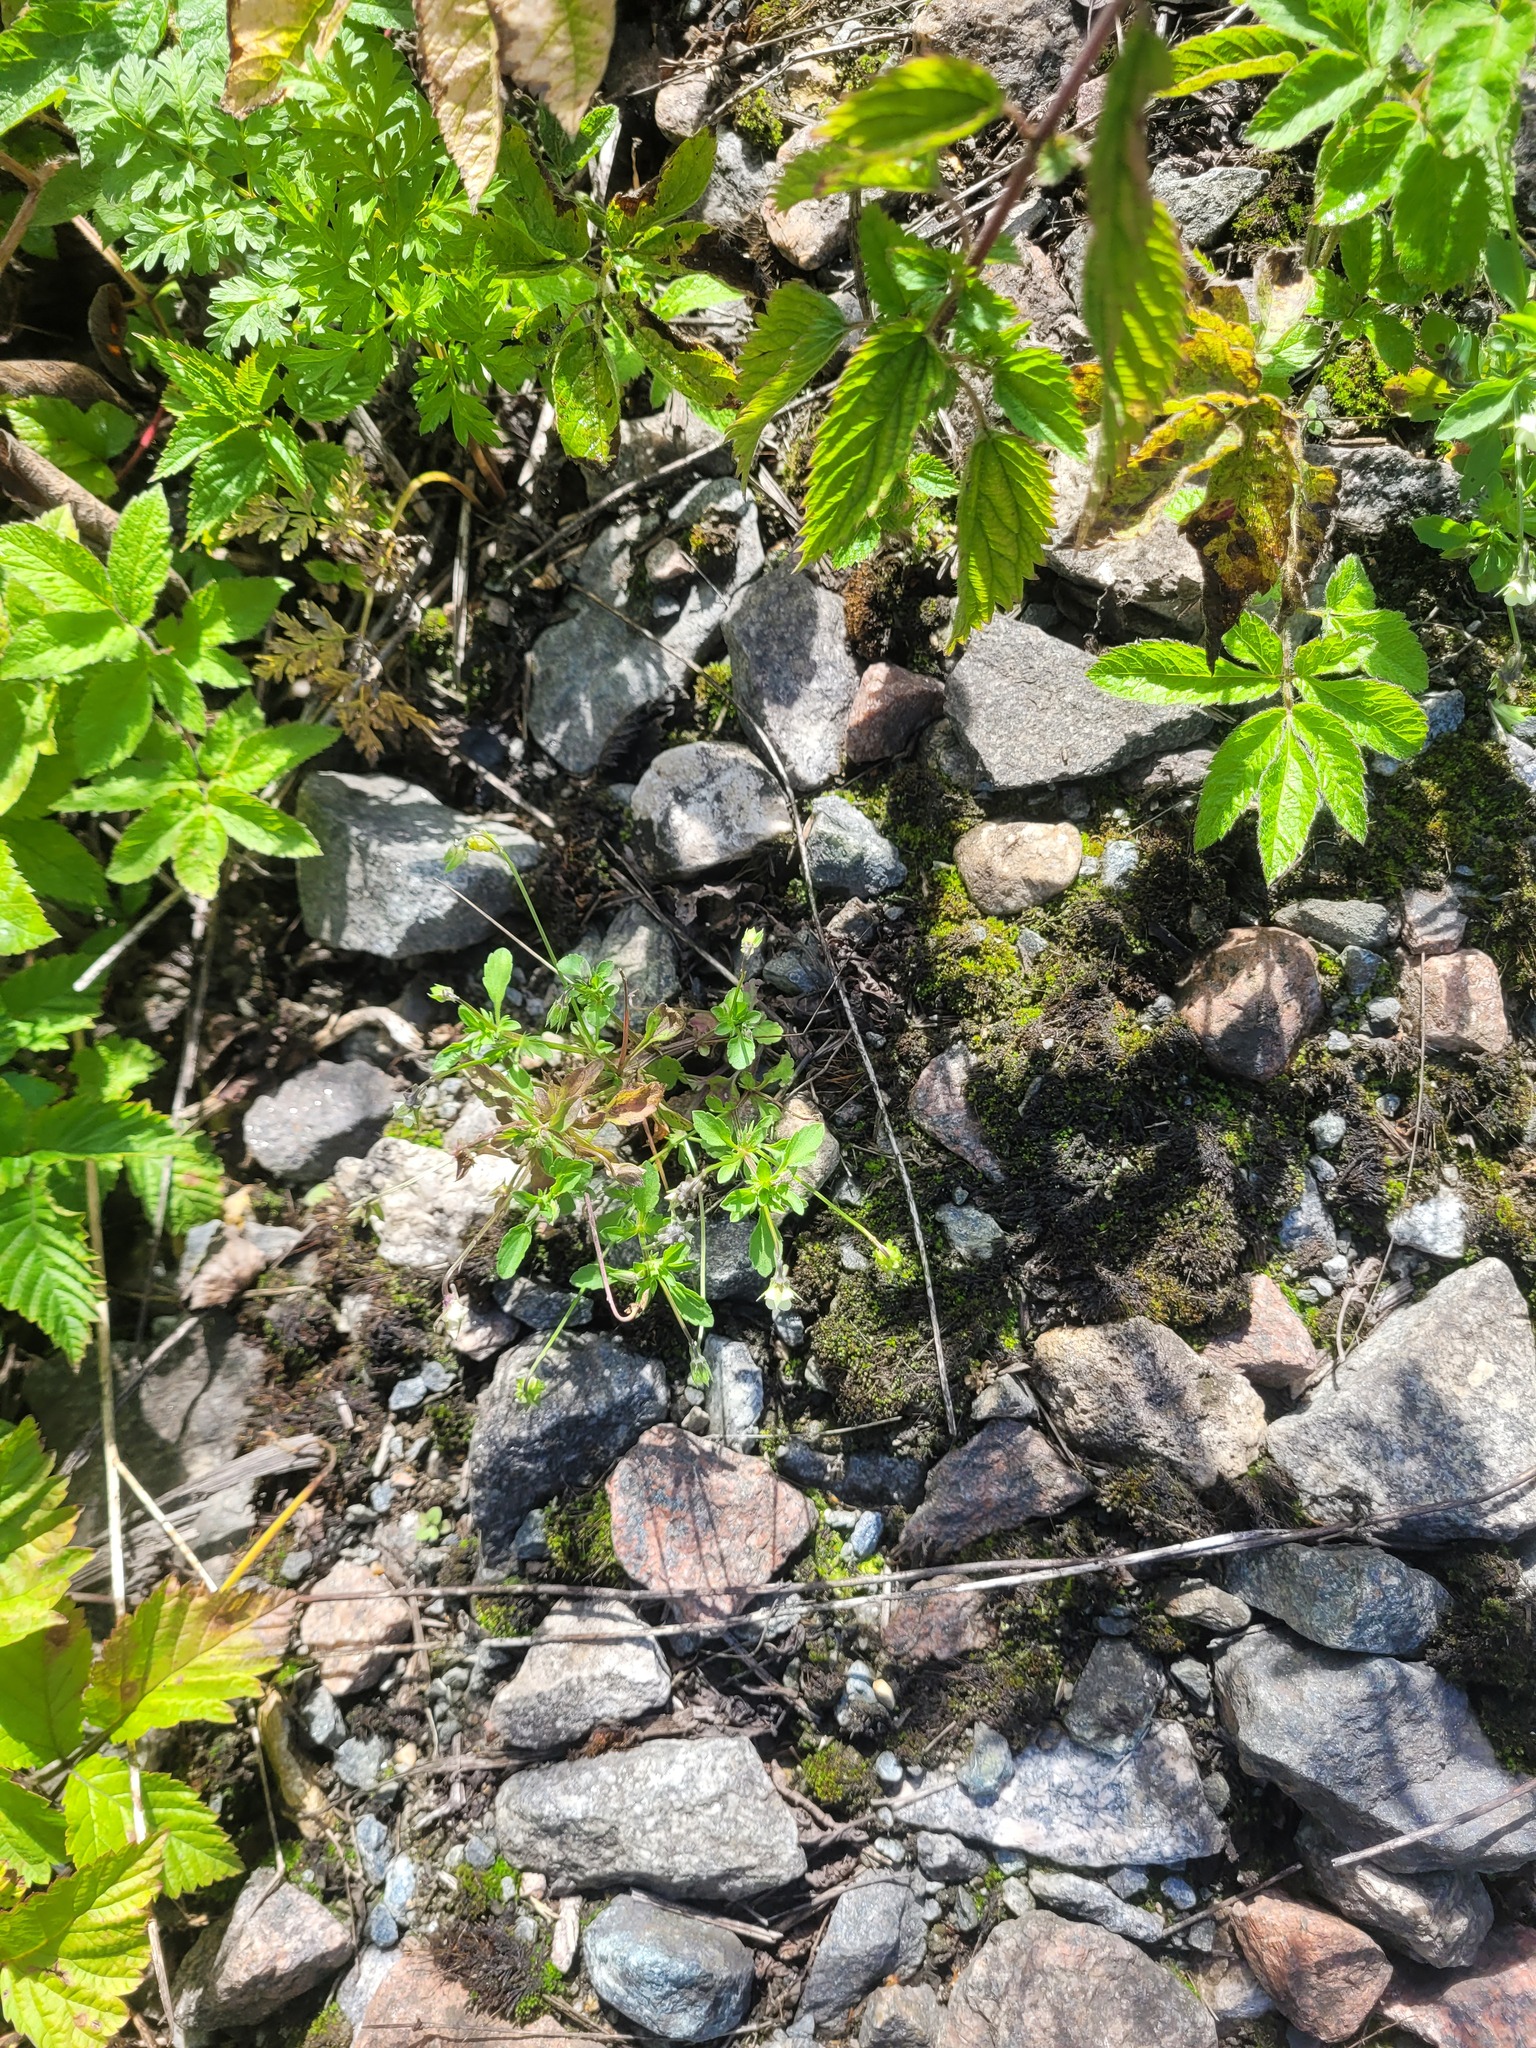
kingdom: Plantae
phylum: Tracheophyta
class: Magnoliopsida
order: Malpighiales
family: Violaceae
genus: Viola
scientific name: Viola arvensis
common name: Field pansy
